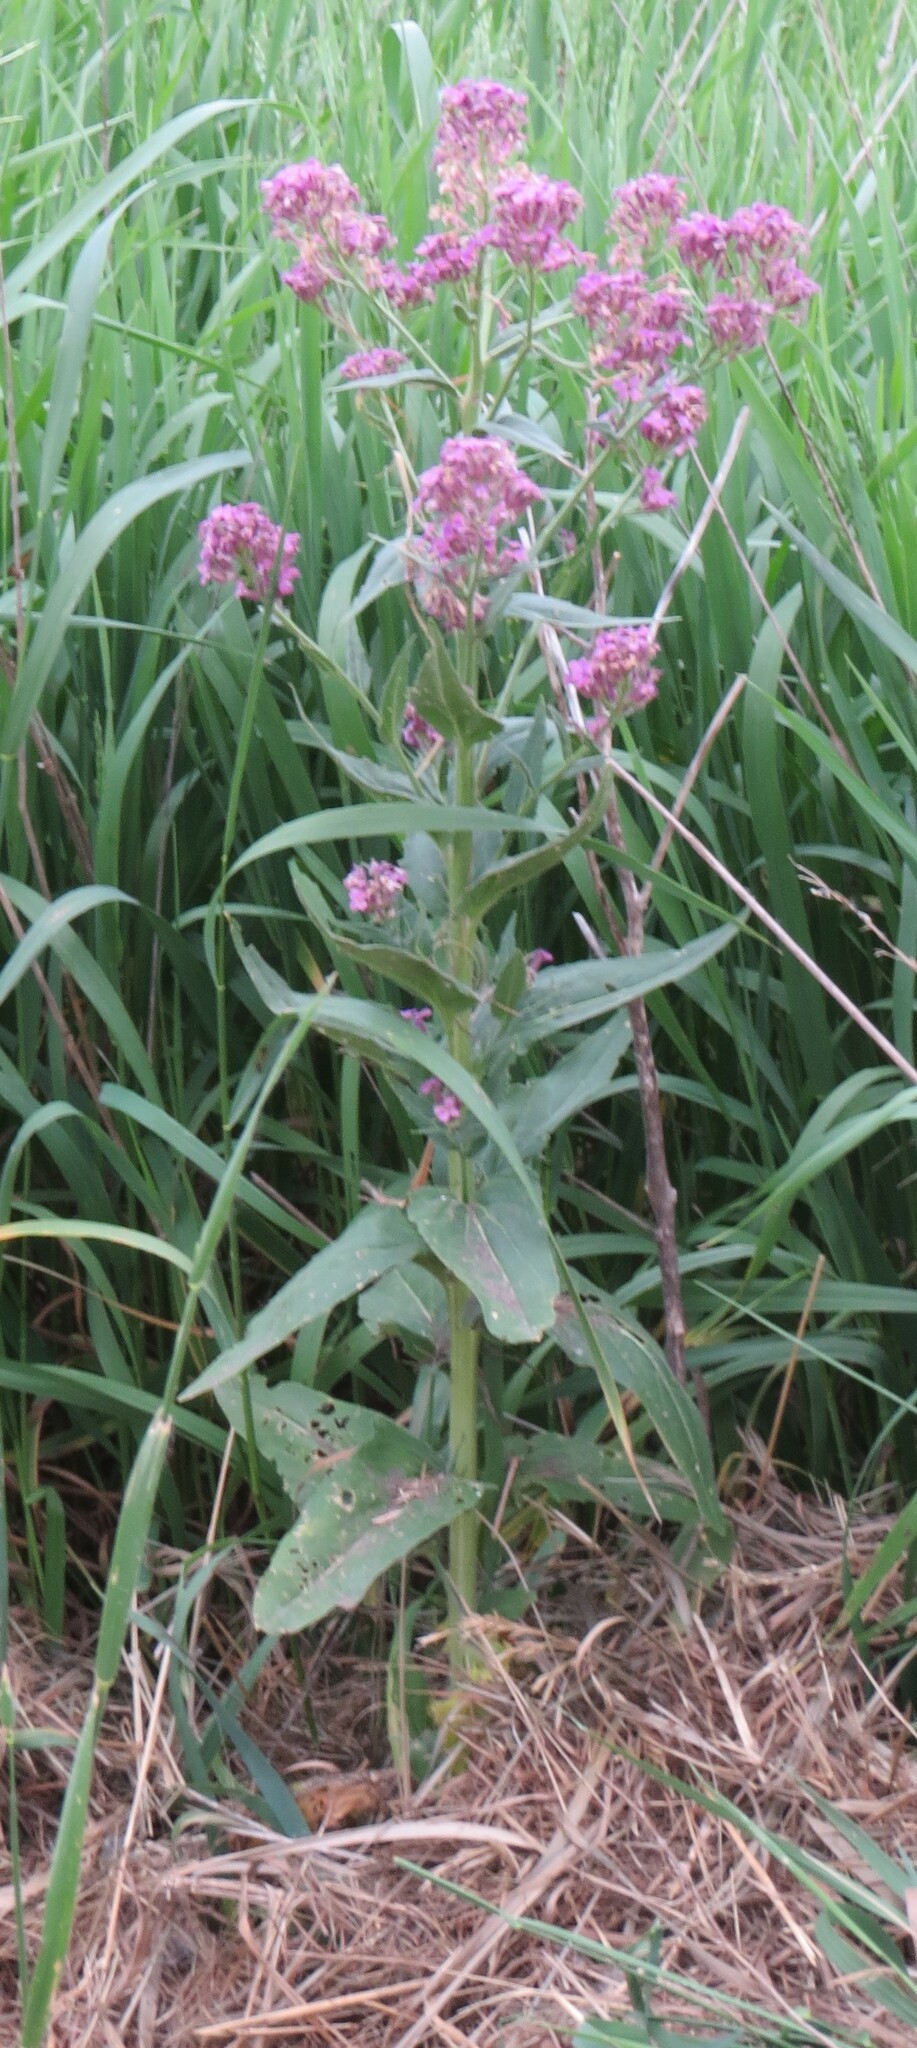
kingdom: Plantae
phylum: Tracheophyta
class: Magnoliopsida
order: Brassicales
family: Brassicaceae
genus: Hesperis
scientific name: Hesperis matronalis
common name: Dame's-violet
